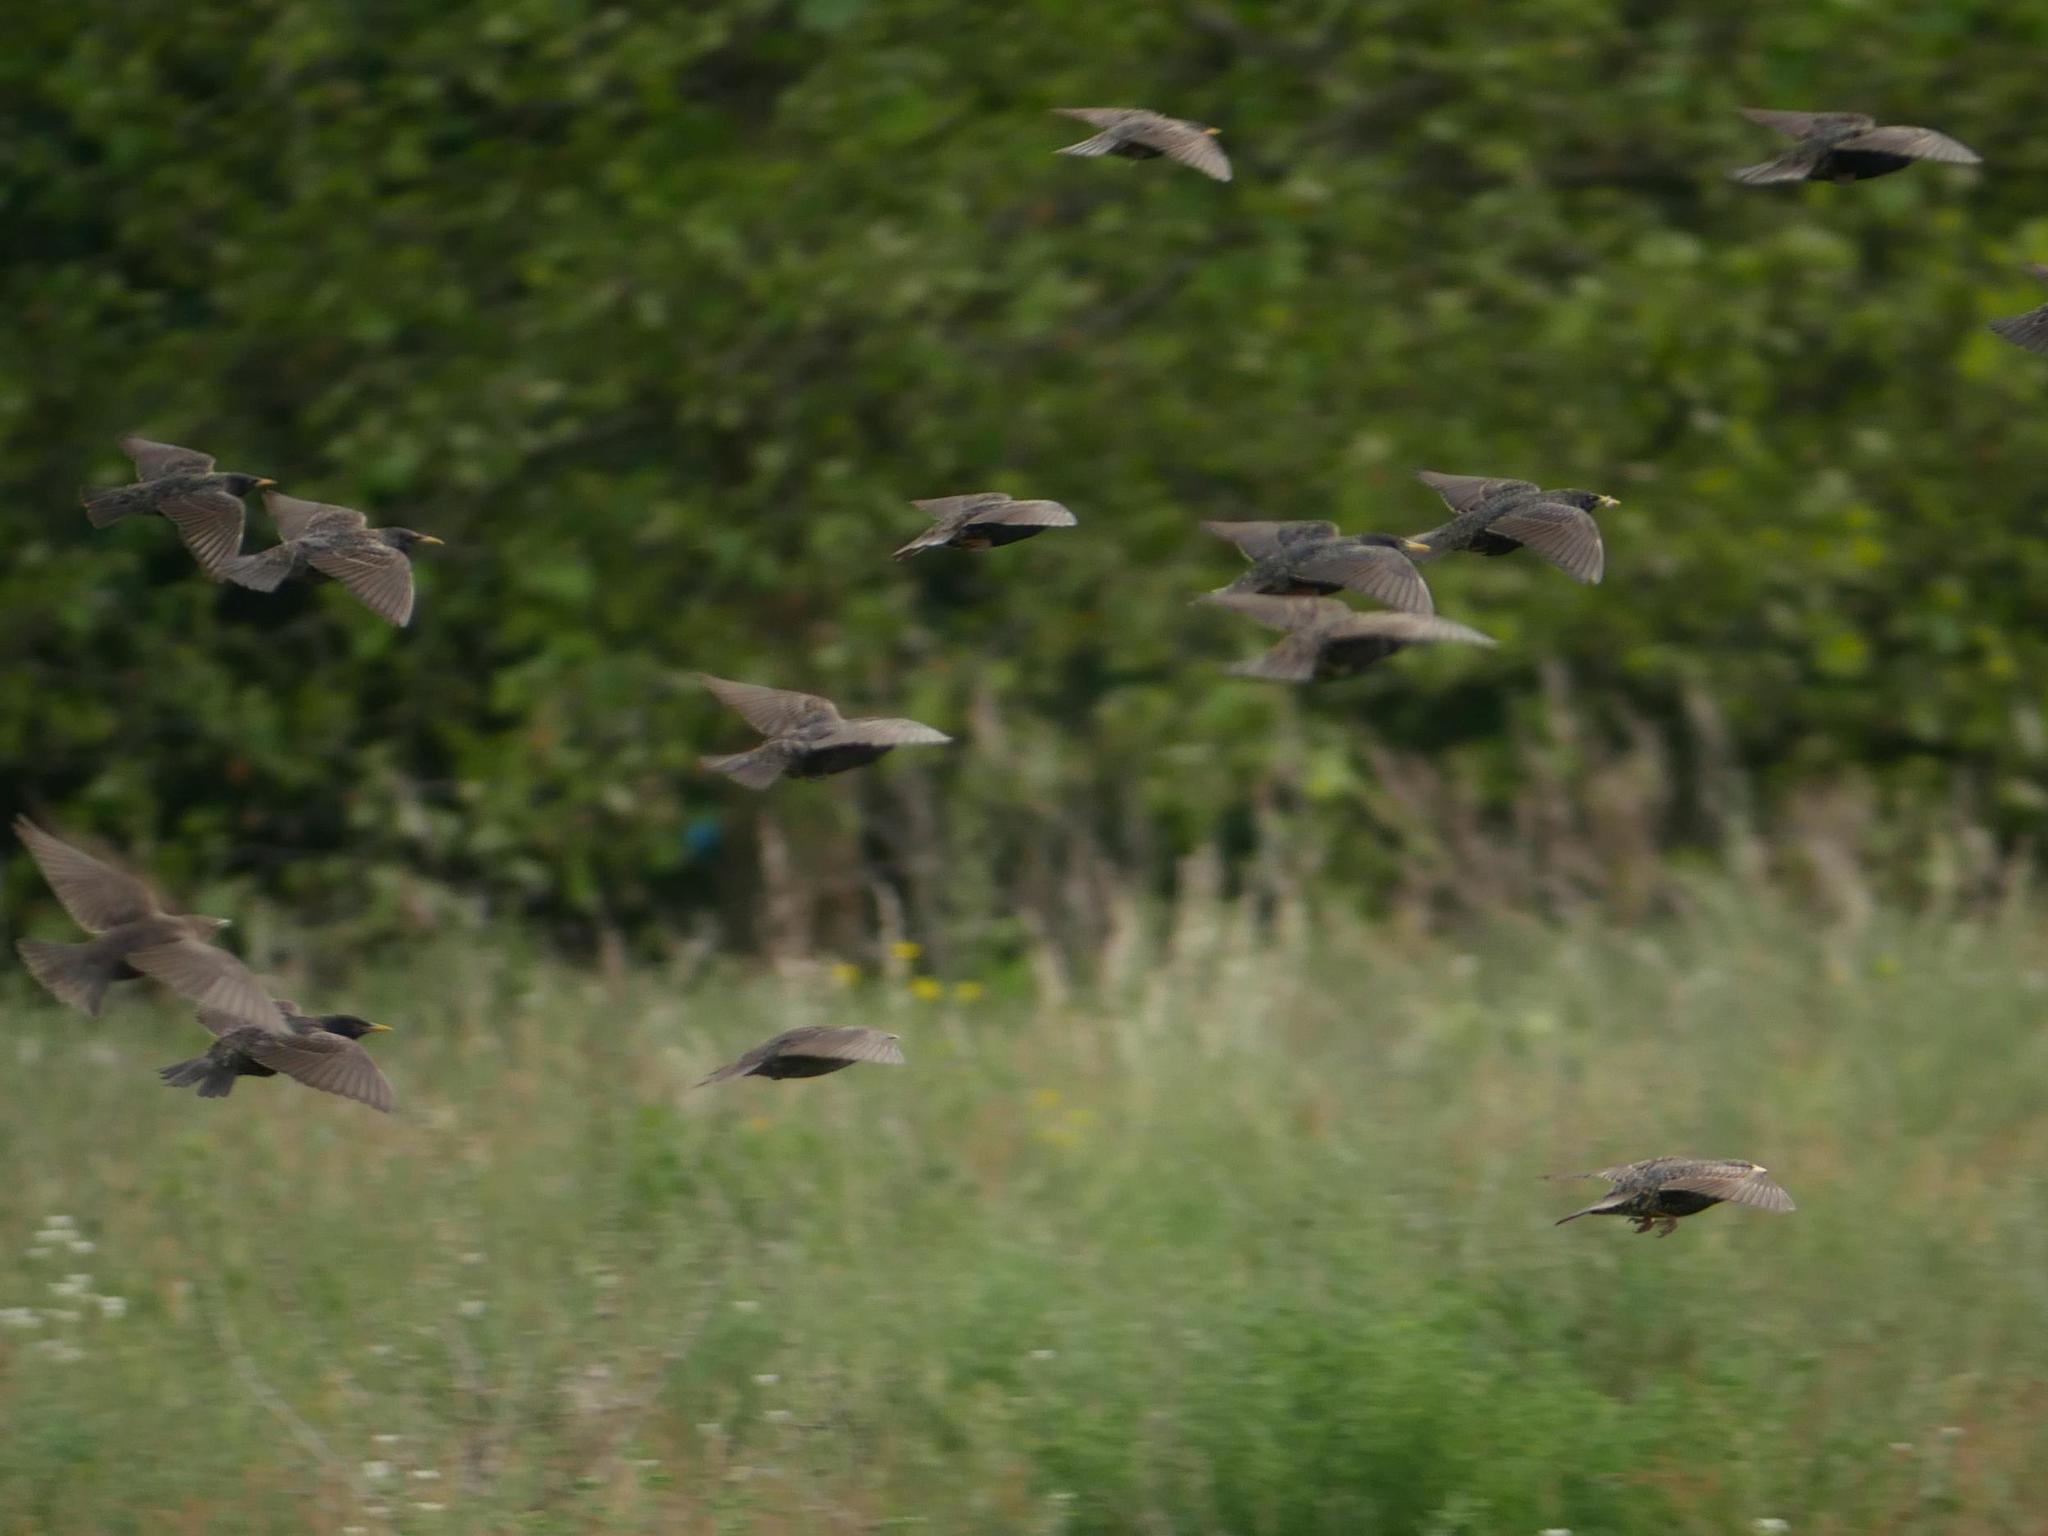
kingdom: Animalia
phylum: Chordata
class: Aves
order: Passeriformes
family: Sturnidae
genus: Sturnus
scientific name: Sturnus vulgaris
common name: Common starling
